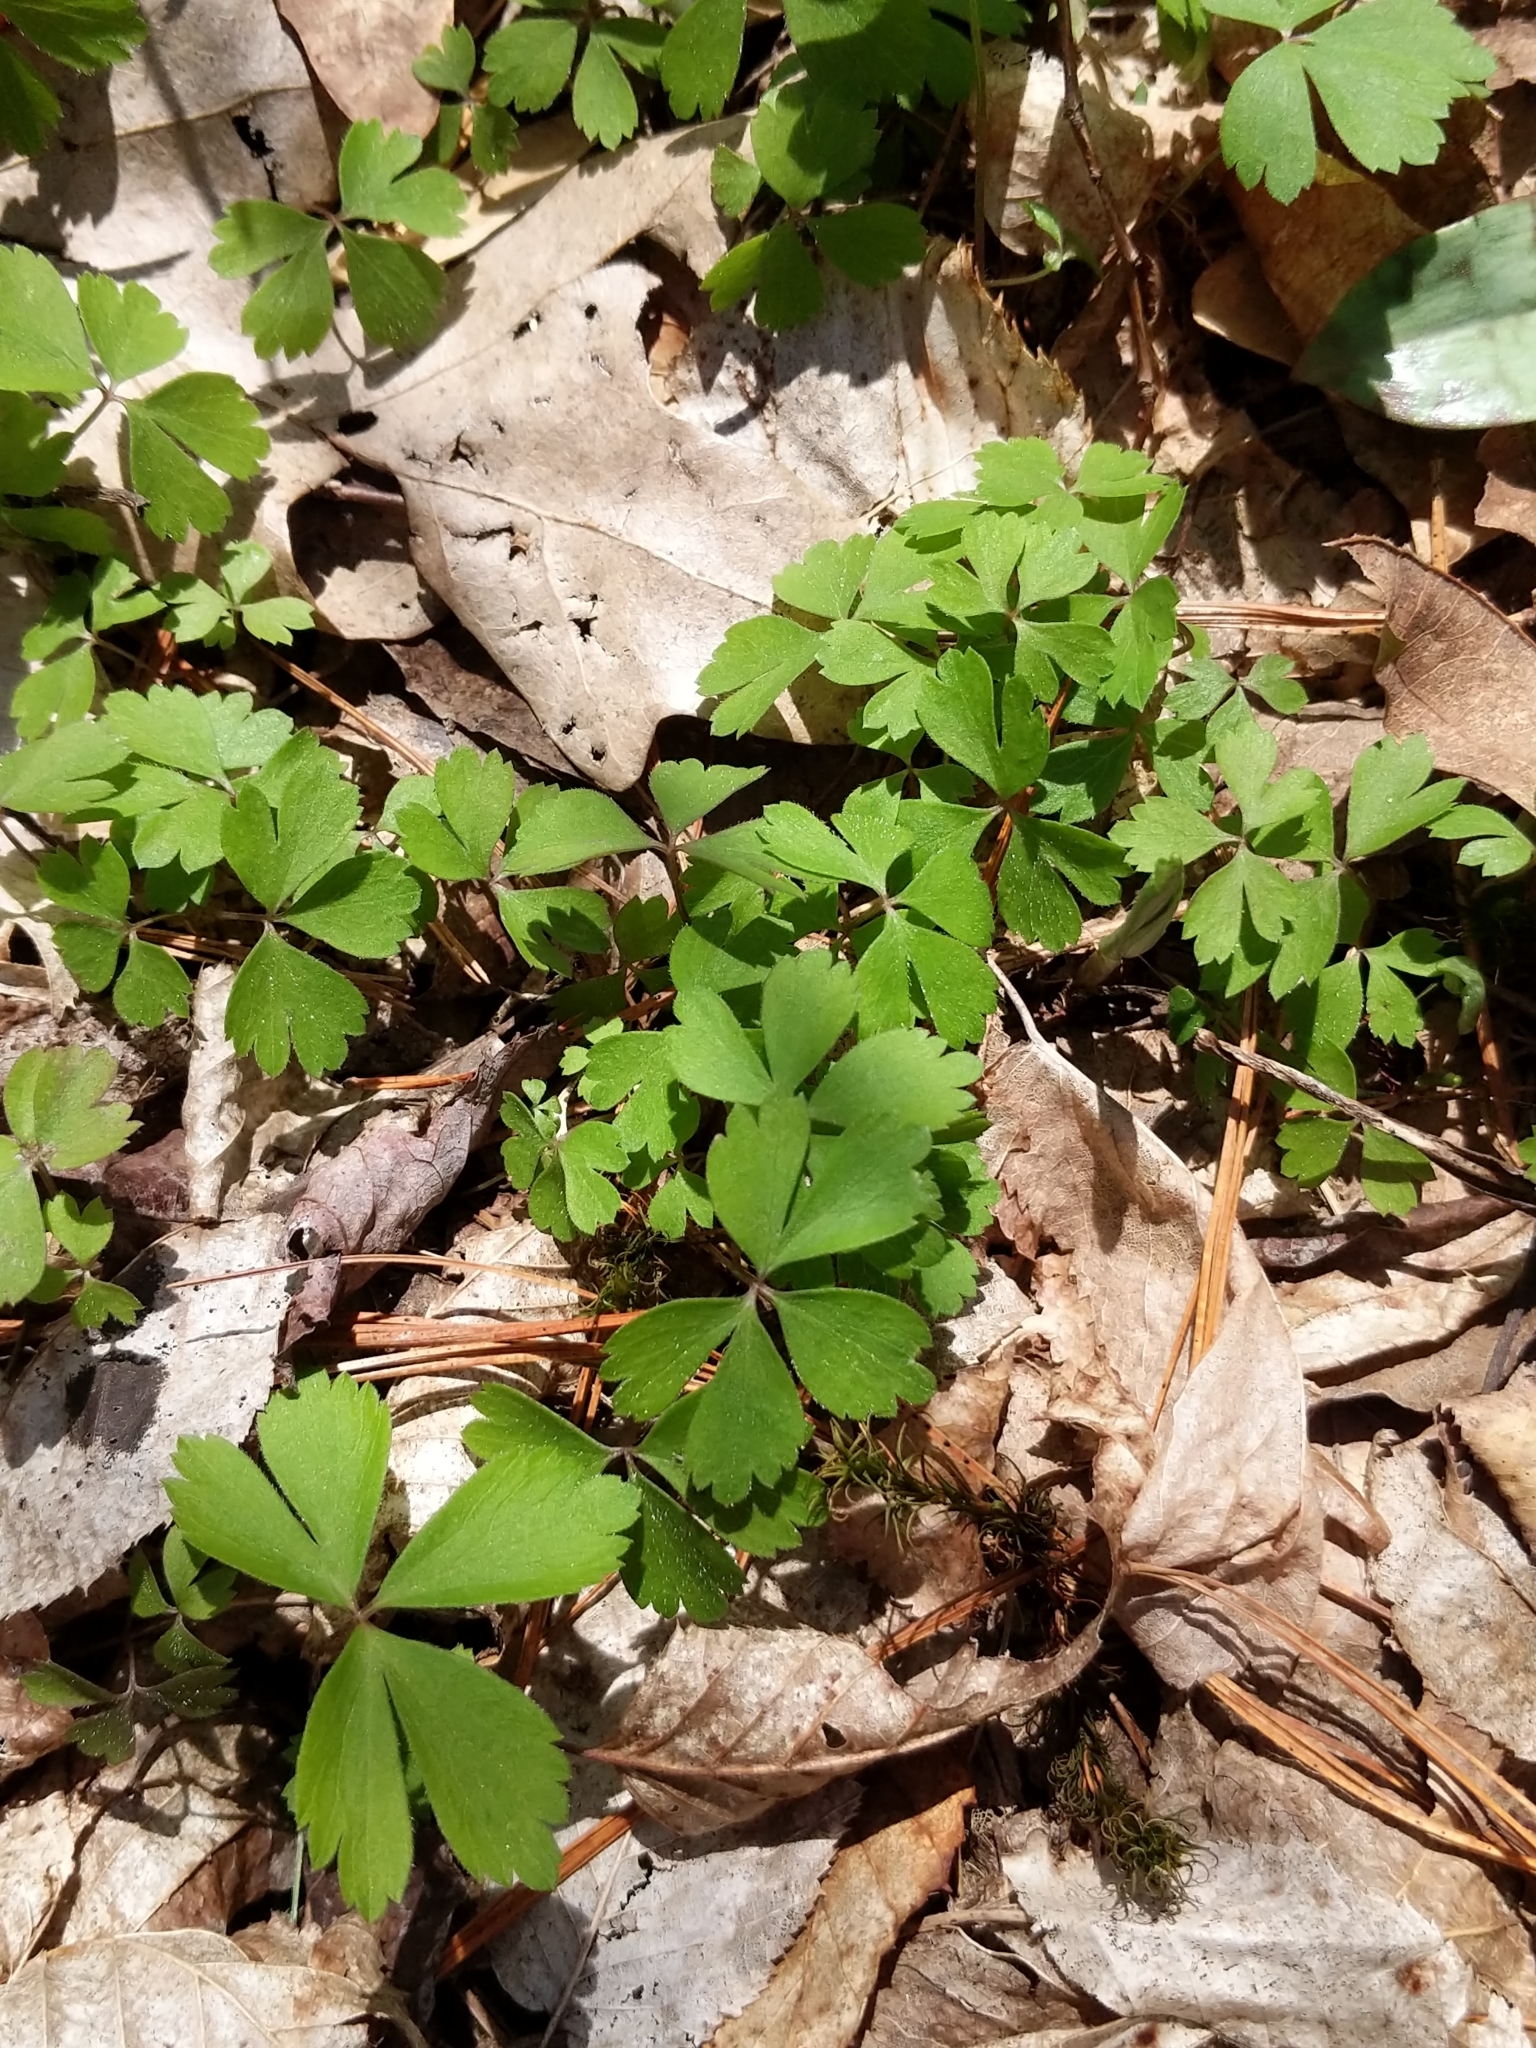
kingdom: Plantae
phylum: Tracheophyta
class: Magnoliopsida
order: Ranunculales
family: Ranunculaceae
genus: Anemone
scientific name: Anemone quinquefolia
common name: Wood anemone
